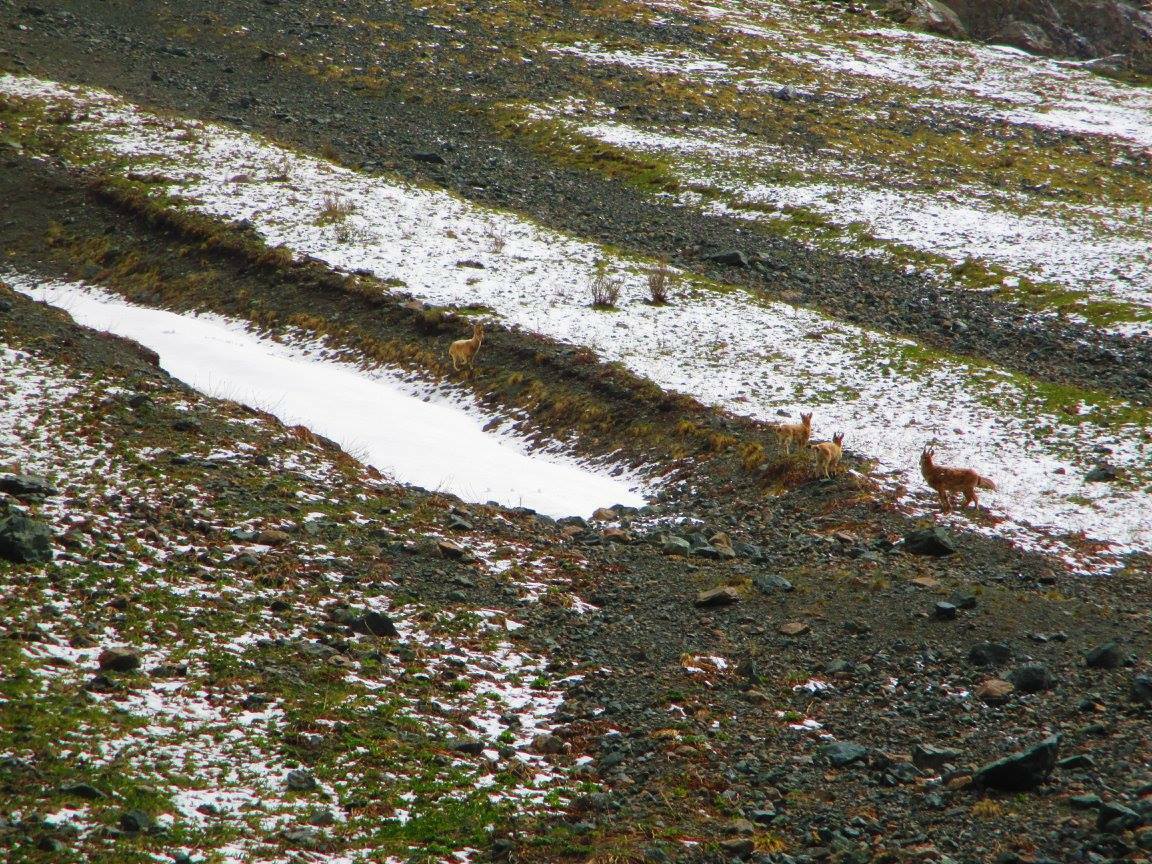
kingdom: Animalia
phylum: Chordata
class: Mammalia
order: Artiodactyla
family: Bovidae
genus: Capra
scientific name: Capra sibirica
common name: Siberian ibex
